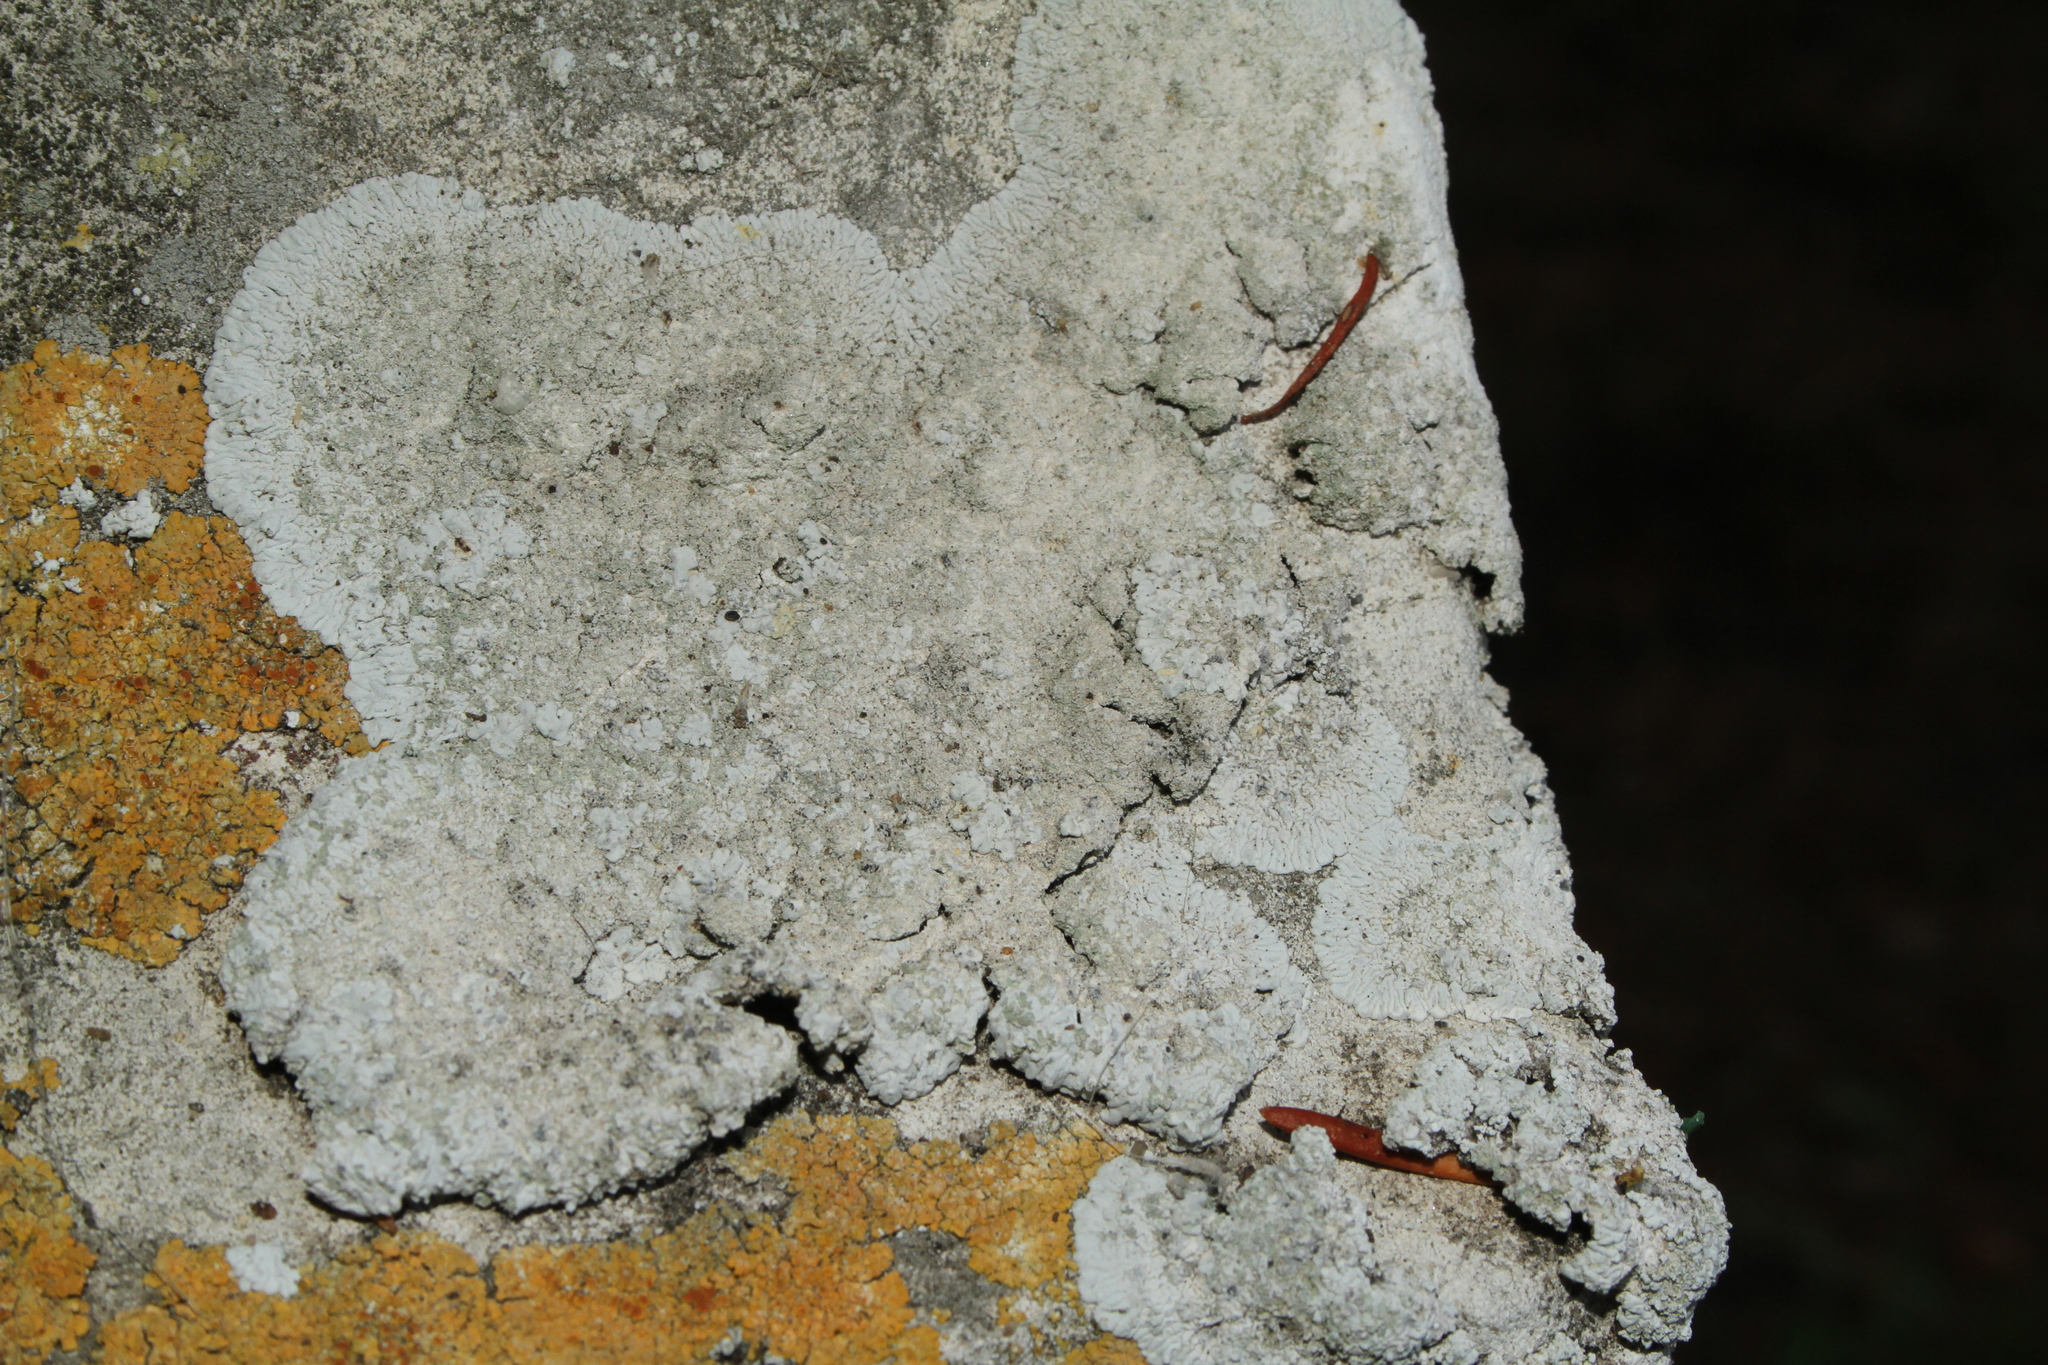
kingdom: Fungi
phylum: Ascomycota
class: Lecanoromycetes
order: Caliciales
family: Caliciaceae
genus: Diploicia
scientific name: Diploicia canescens
